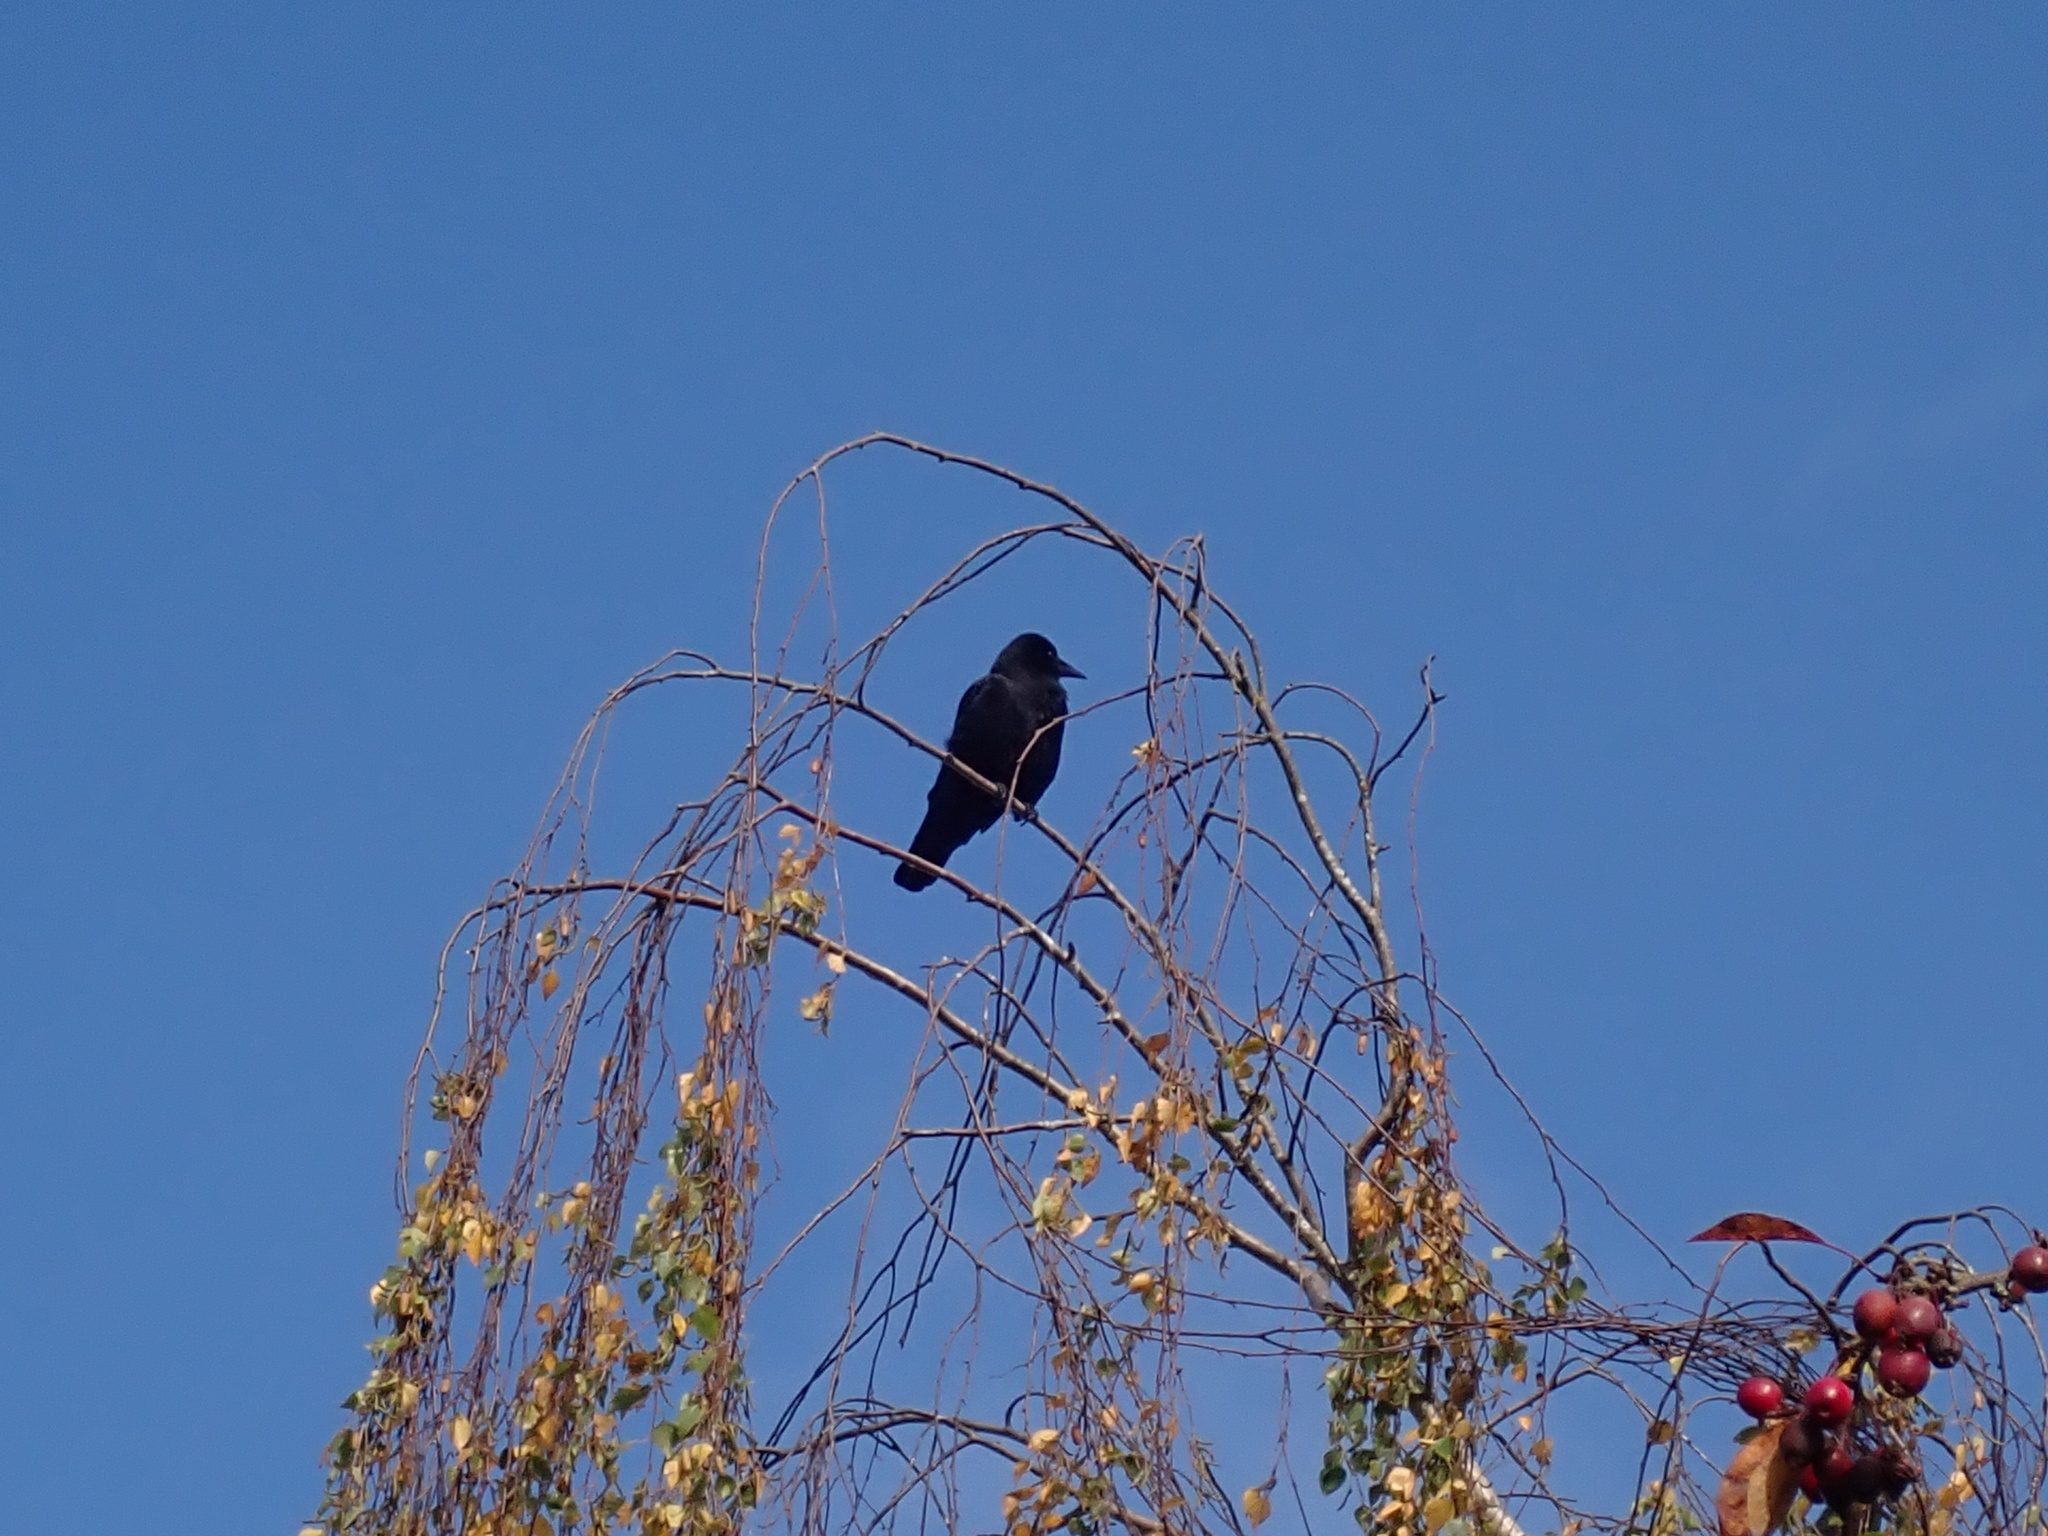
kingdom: Animalia
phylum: Chordata
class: Aves
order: Passeriformes
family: Corvidae
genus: Corvus
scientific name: Corvus brachyrhynchos
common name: American crow
